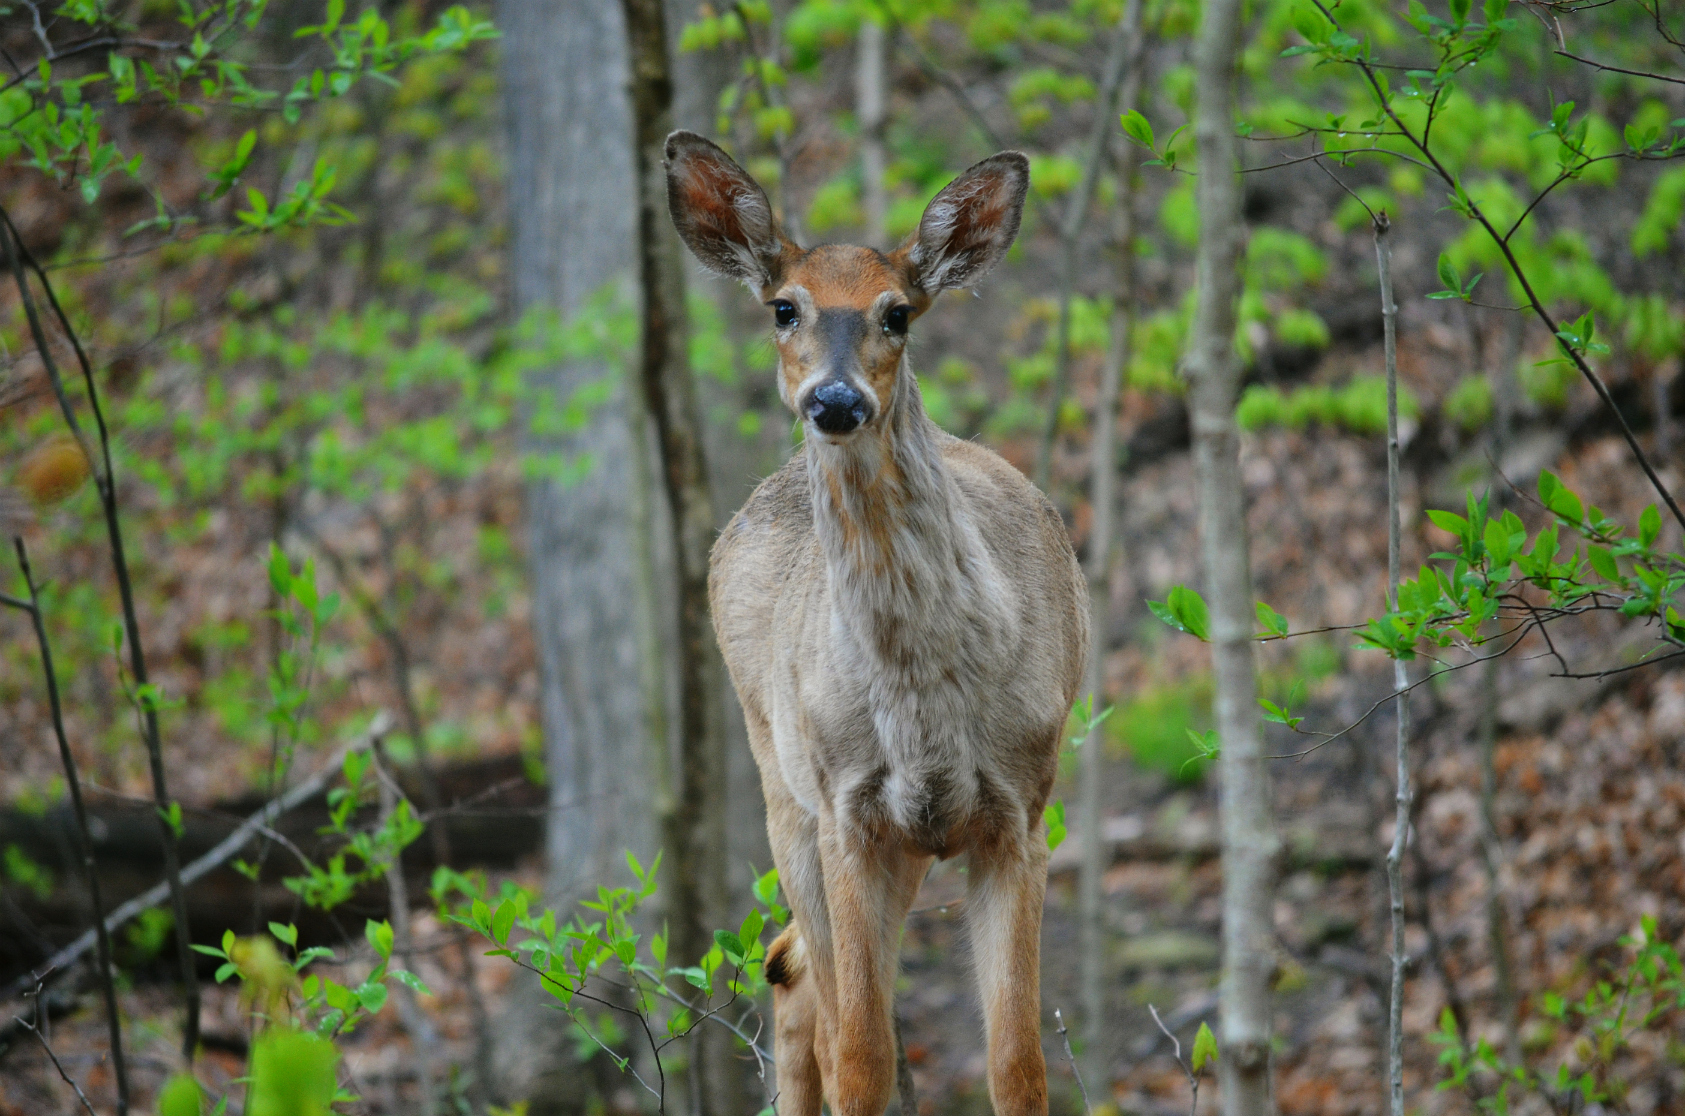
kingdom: Animalia
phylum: Chordata
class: Mammalia
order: Artiodactyla
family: Cervidae
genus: Odocoileus
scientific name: Odocoileus virginianus
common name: White-tailed deer
